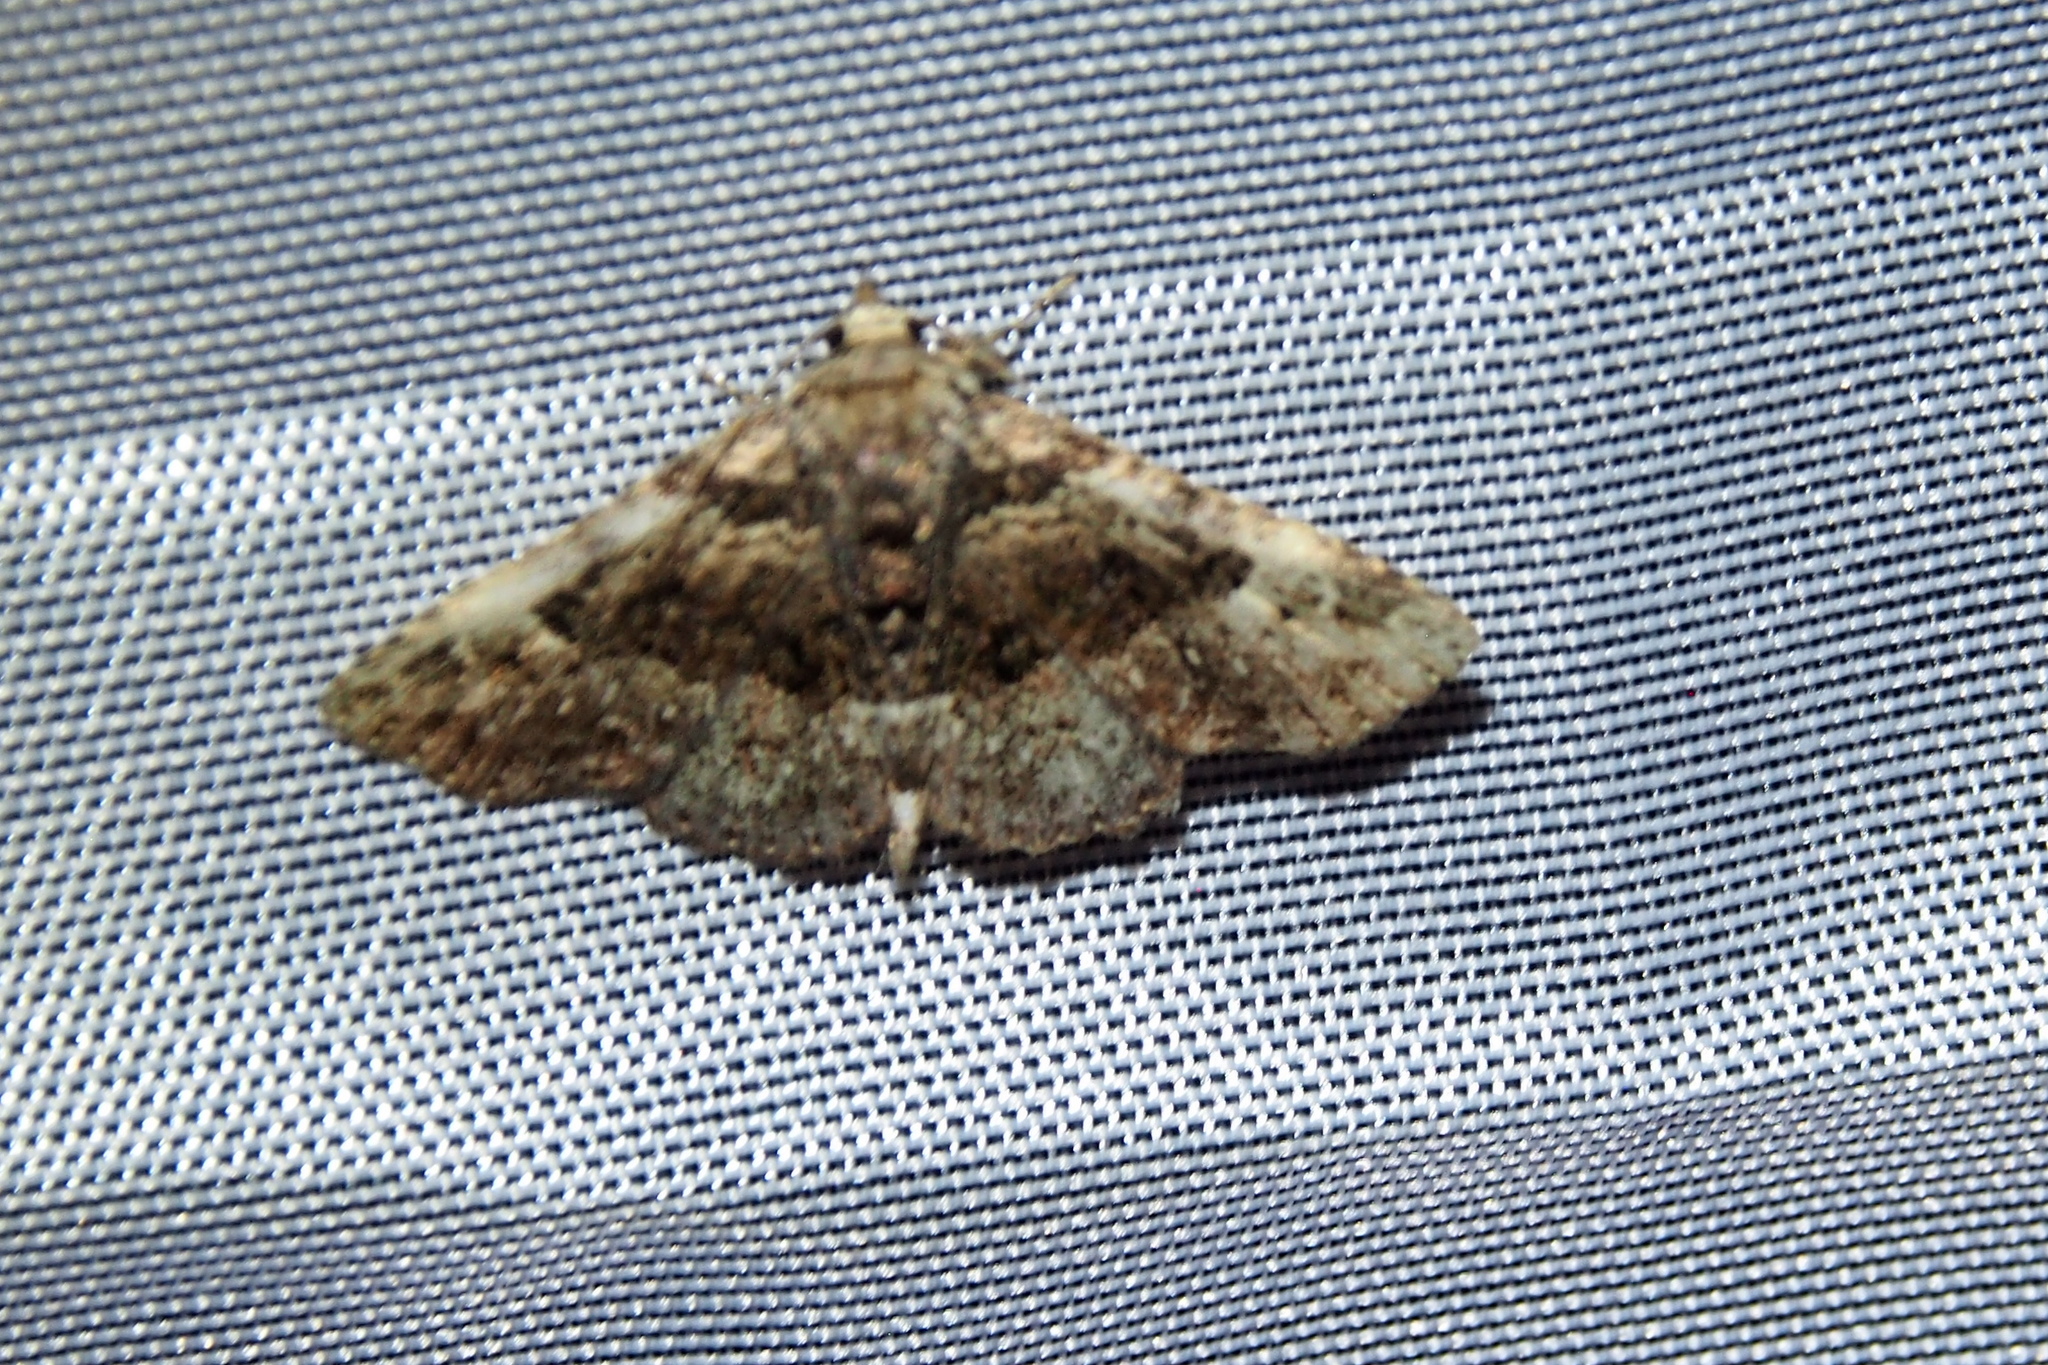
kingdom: Animalia
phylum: Arthropoda
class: Insecta
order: Lepidoptera
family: Erebidae
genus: Metalectra
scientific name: Metalectra discalis
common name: Common fungus moth
